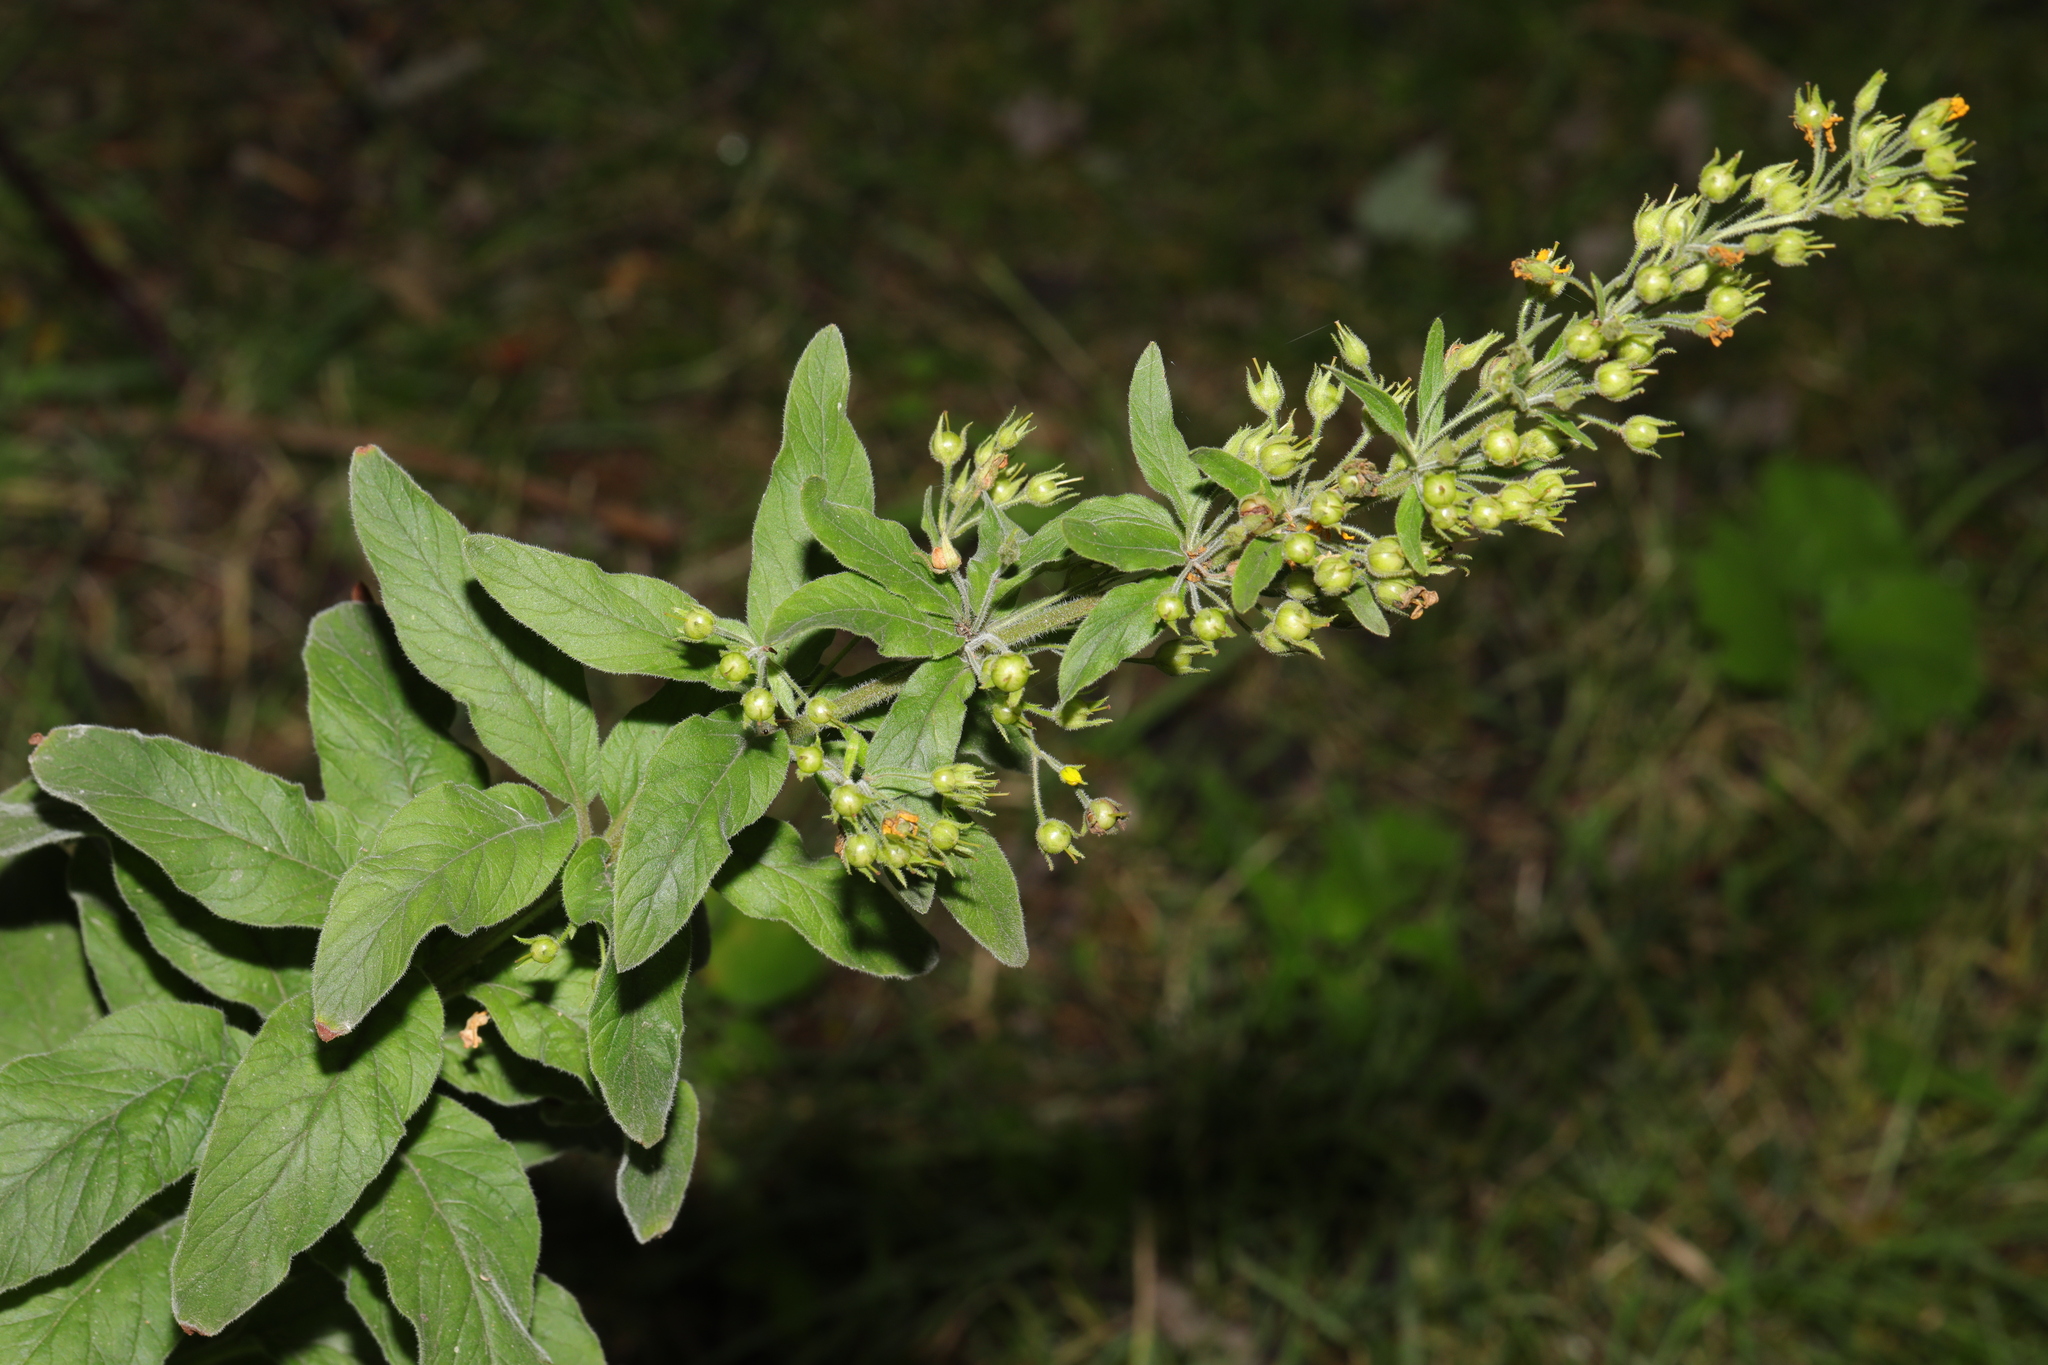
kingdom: Plantae
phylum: Tracheophyta
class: Magnoliopsida
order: Ericales
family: Primulaceae
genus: Lysimachia
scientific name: Lysimachia punctata
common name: Dotted loosestrife
